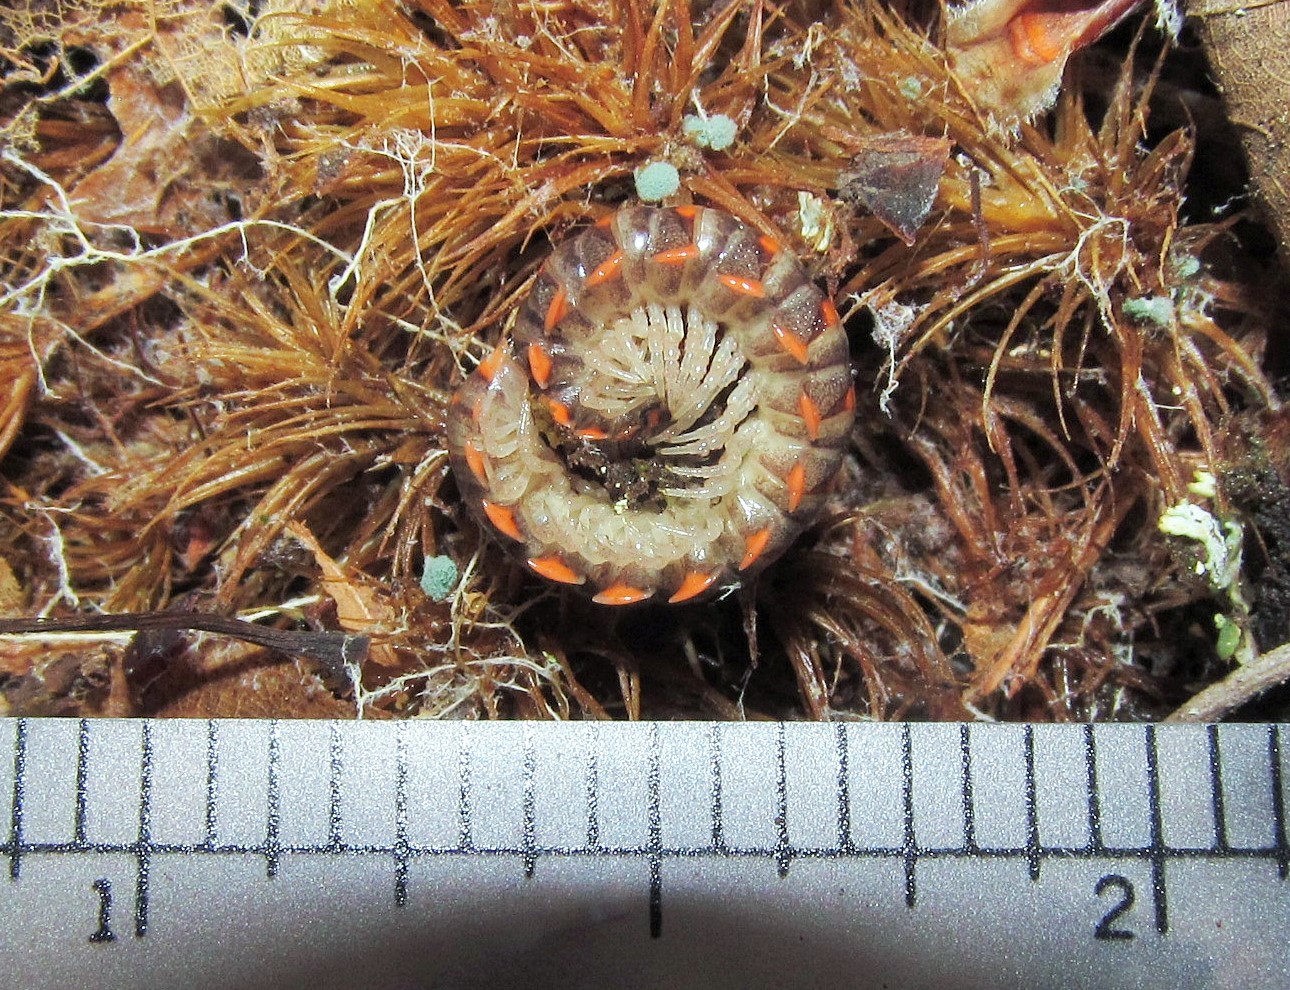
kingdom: Animalia
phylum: Arthropoda
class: Diplopoda
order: Polydesmida
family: Xystodesmidae
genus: Euryurus
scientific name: Euryurus leachii
